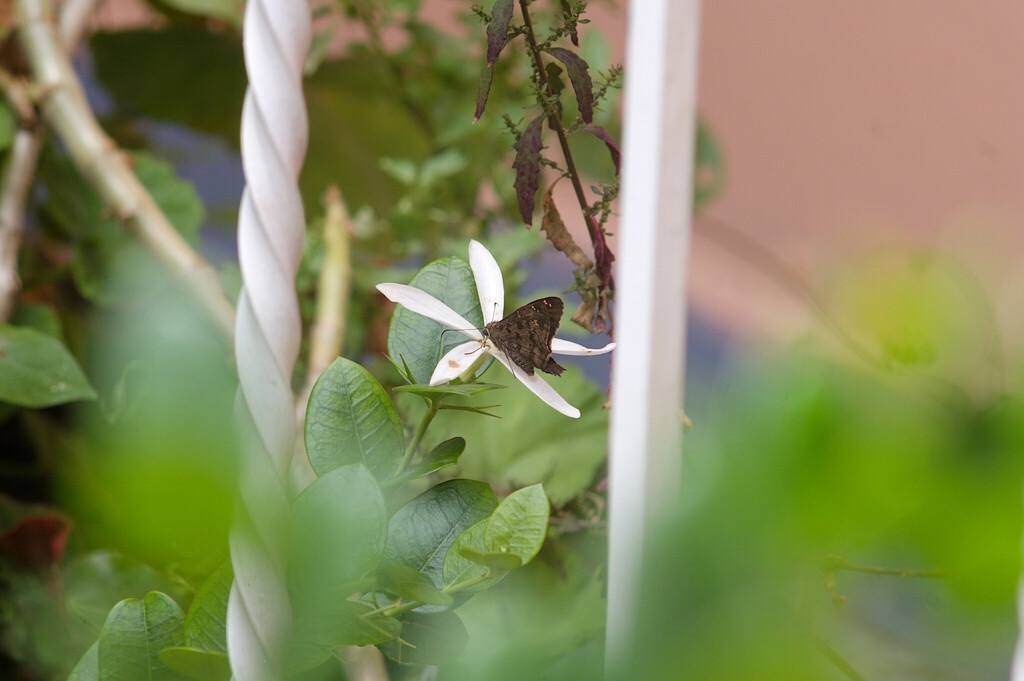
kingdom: Animalia
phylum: Arthropoda
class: Insecta
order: Lepidoptera
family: Hesperiidae
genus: Thorybes
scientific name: Thorybes
